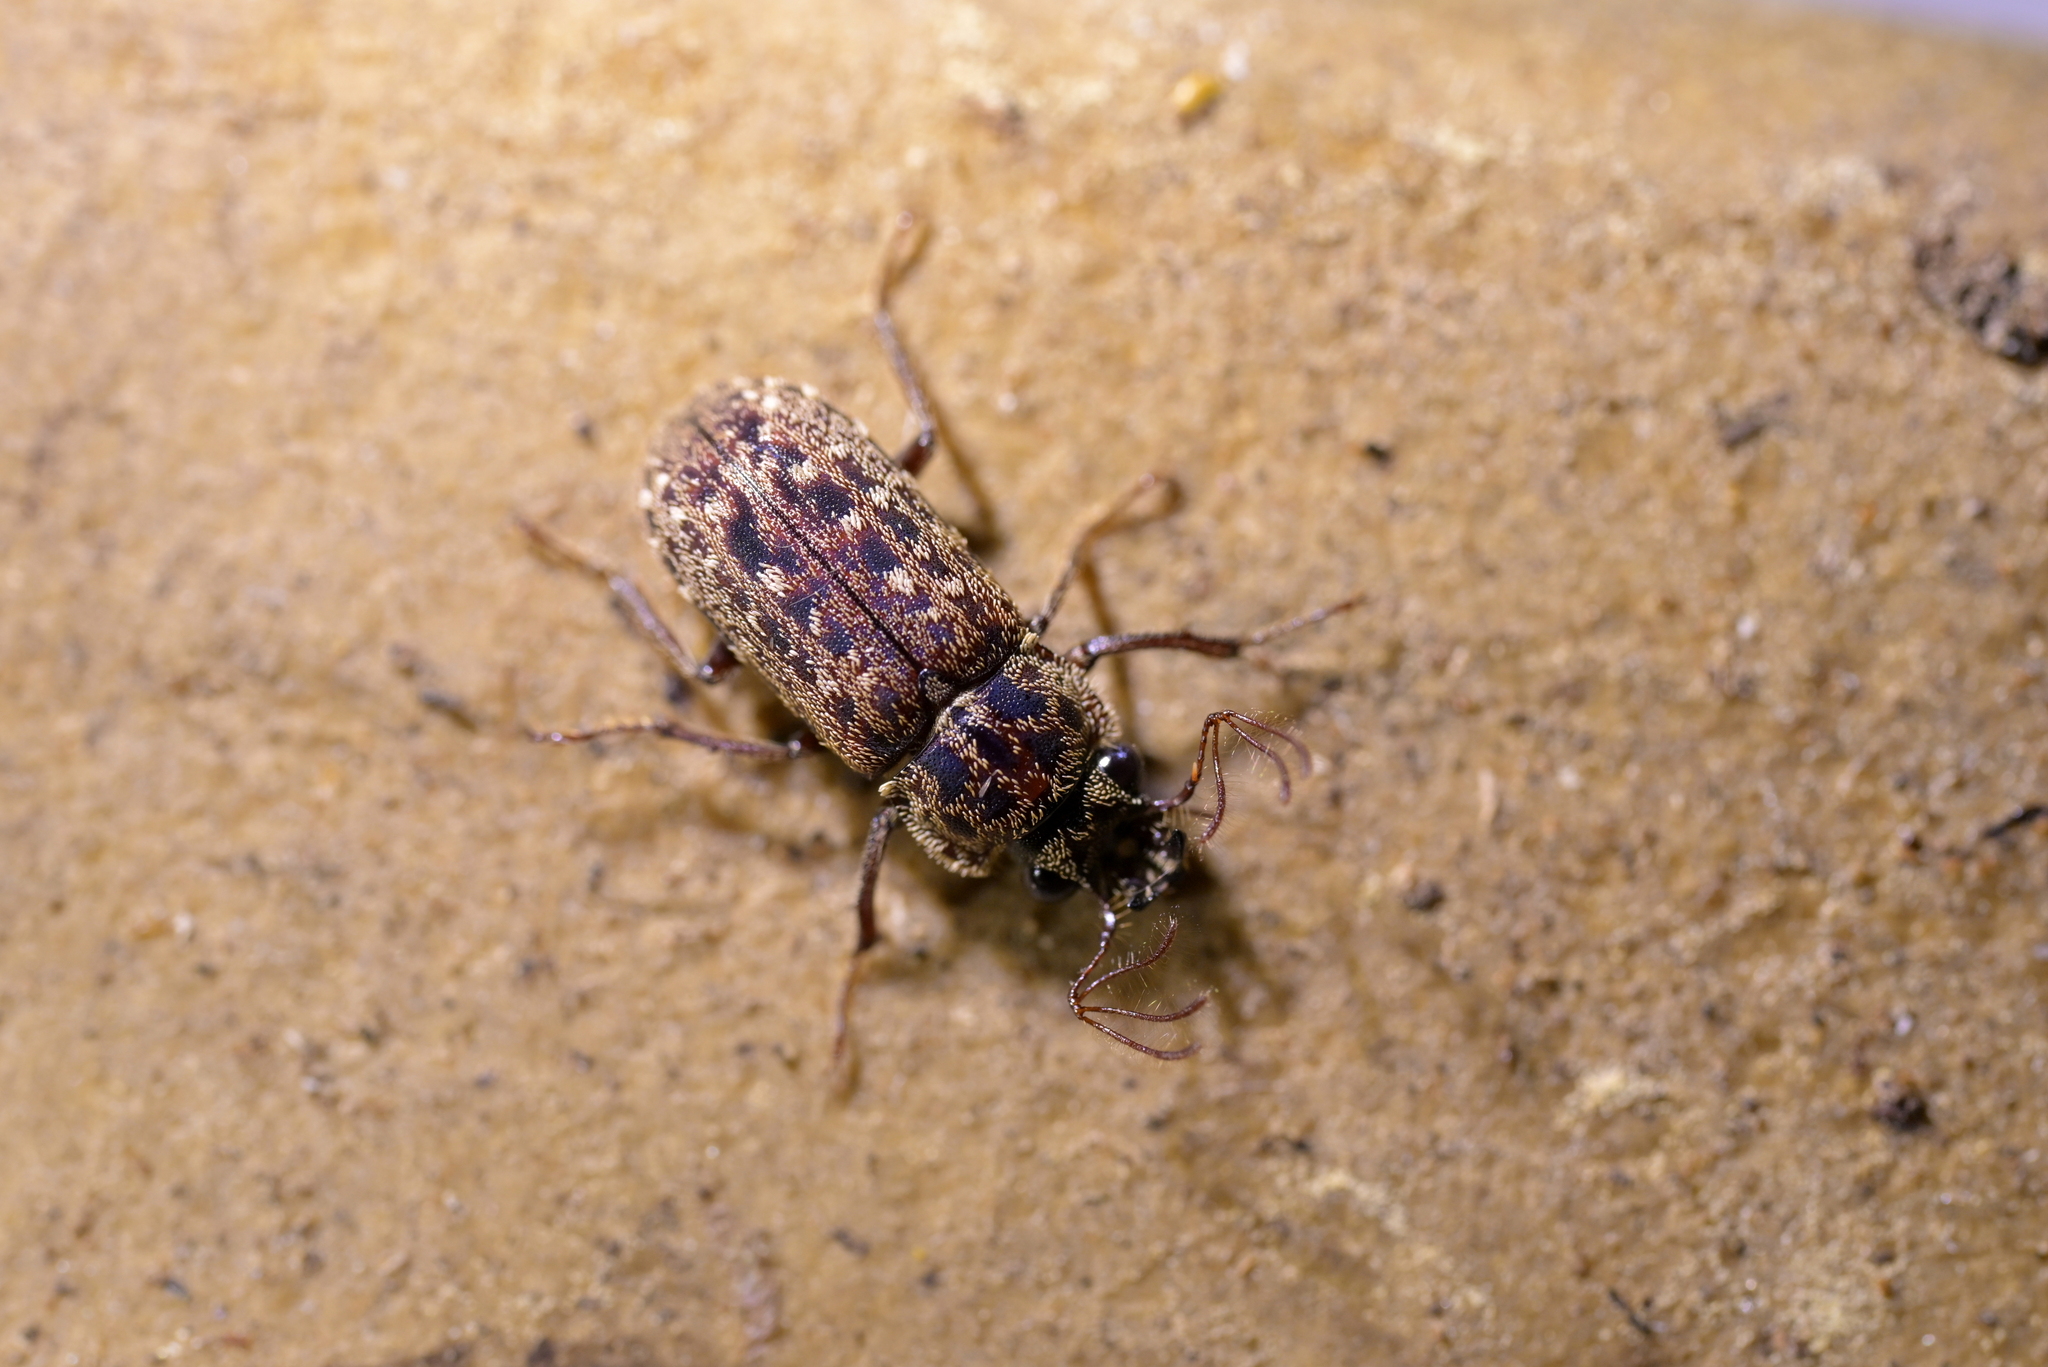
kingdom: Animalia
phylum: Arthropoda
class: Insecta
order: Coleoptera
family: Lucanidae
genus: Mitophyllus
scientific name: Mitophyllus irroratus
